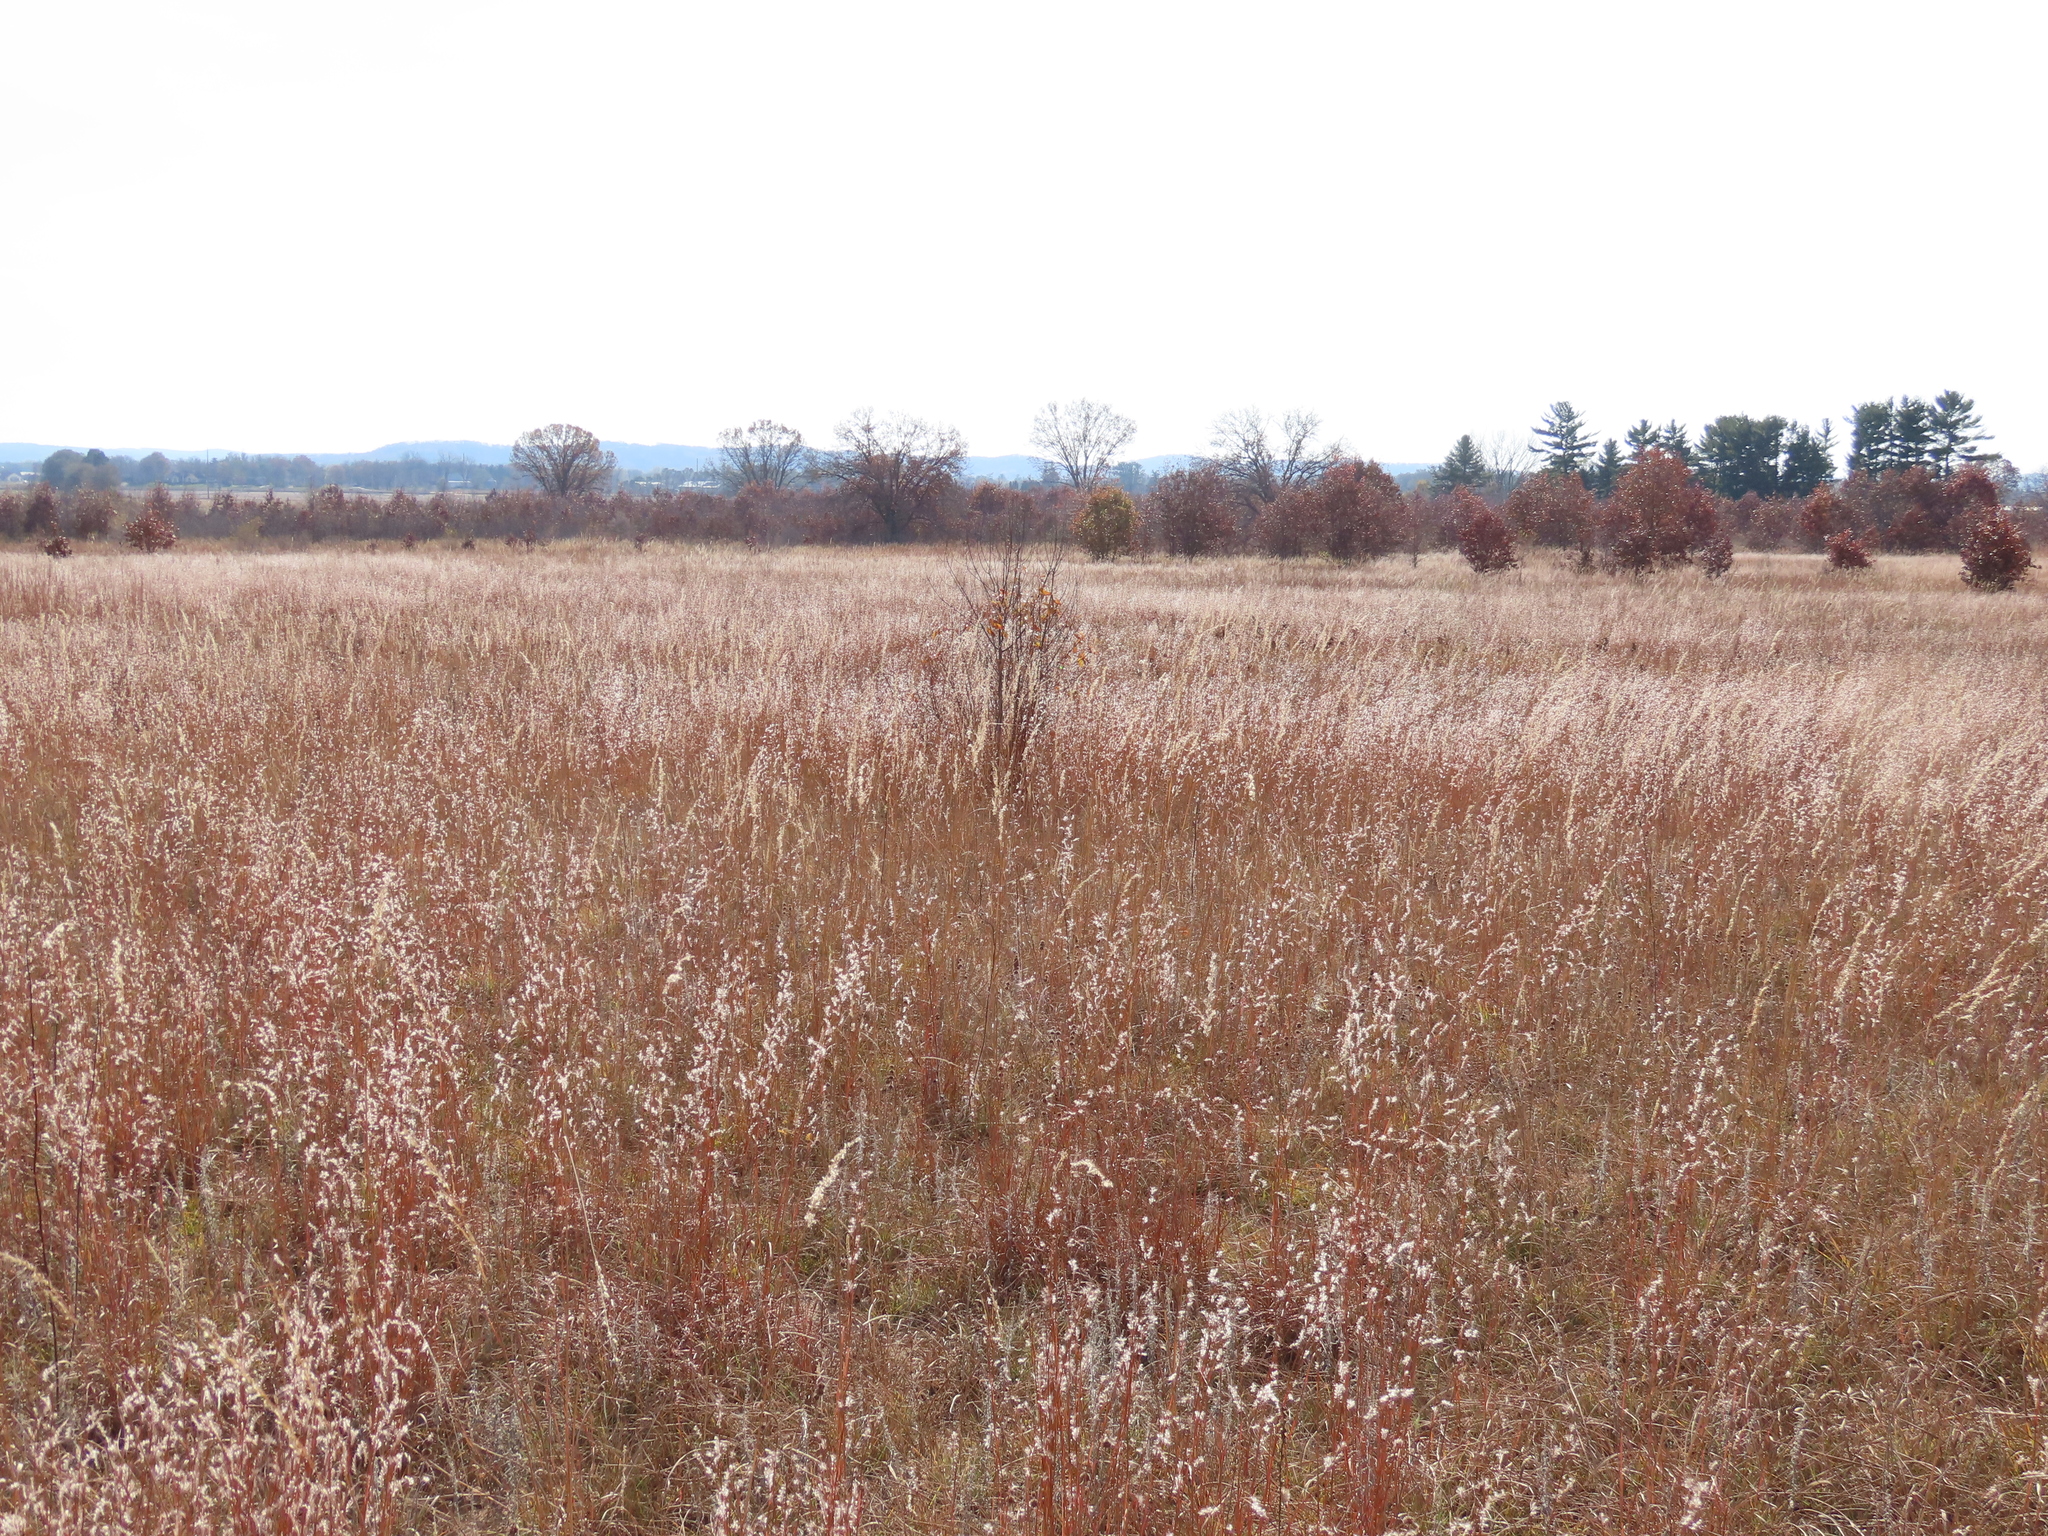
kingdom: Plantae
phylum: Tracheophyta
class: Liliopsida
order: Poales
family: Poaceae
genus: Schizachyrium
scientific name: Schizachyrium scoparium
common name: Little bluestem
